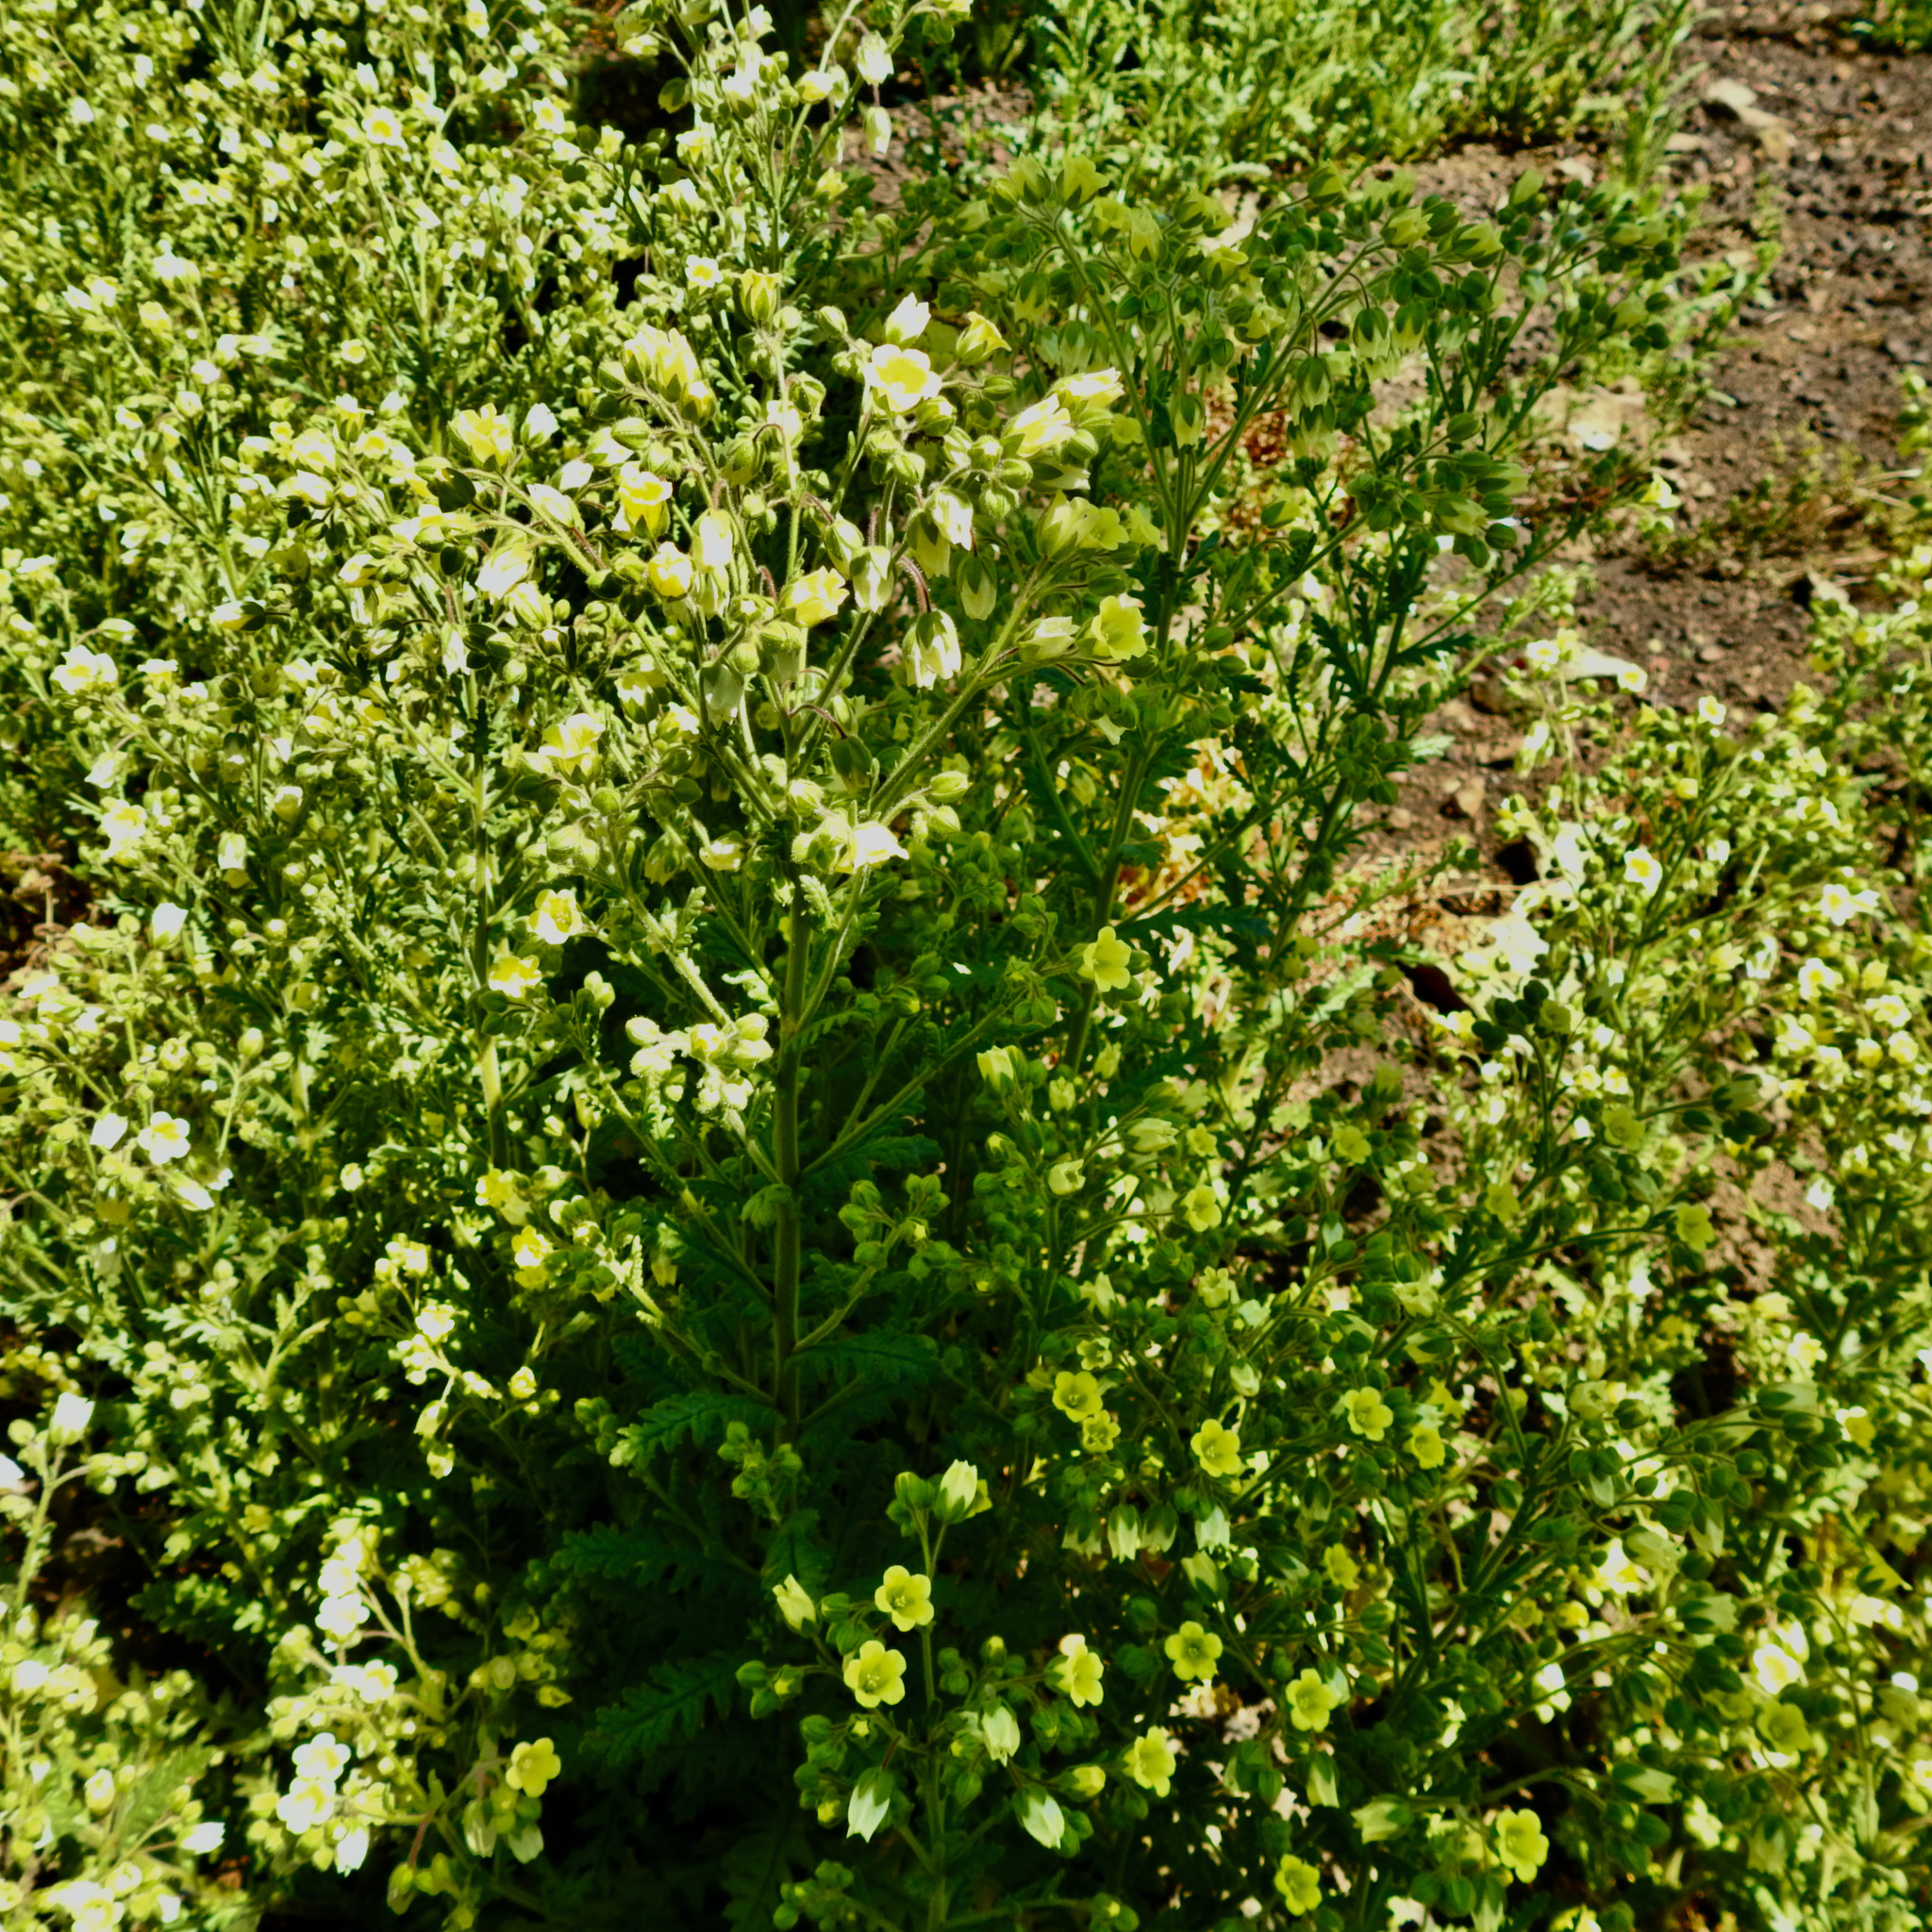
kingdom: Plantae
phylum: Tracheophyta
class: Magnoliopsida
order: Boraginales
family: Hydrophyllaceae
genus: Emmenanthe
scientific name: Emmenanthe penduliflora
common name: Whispering-bells
